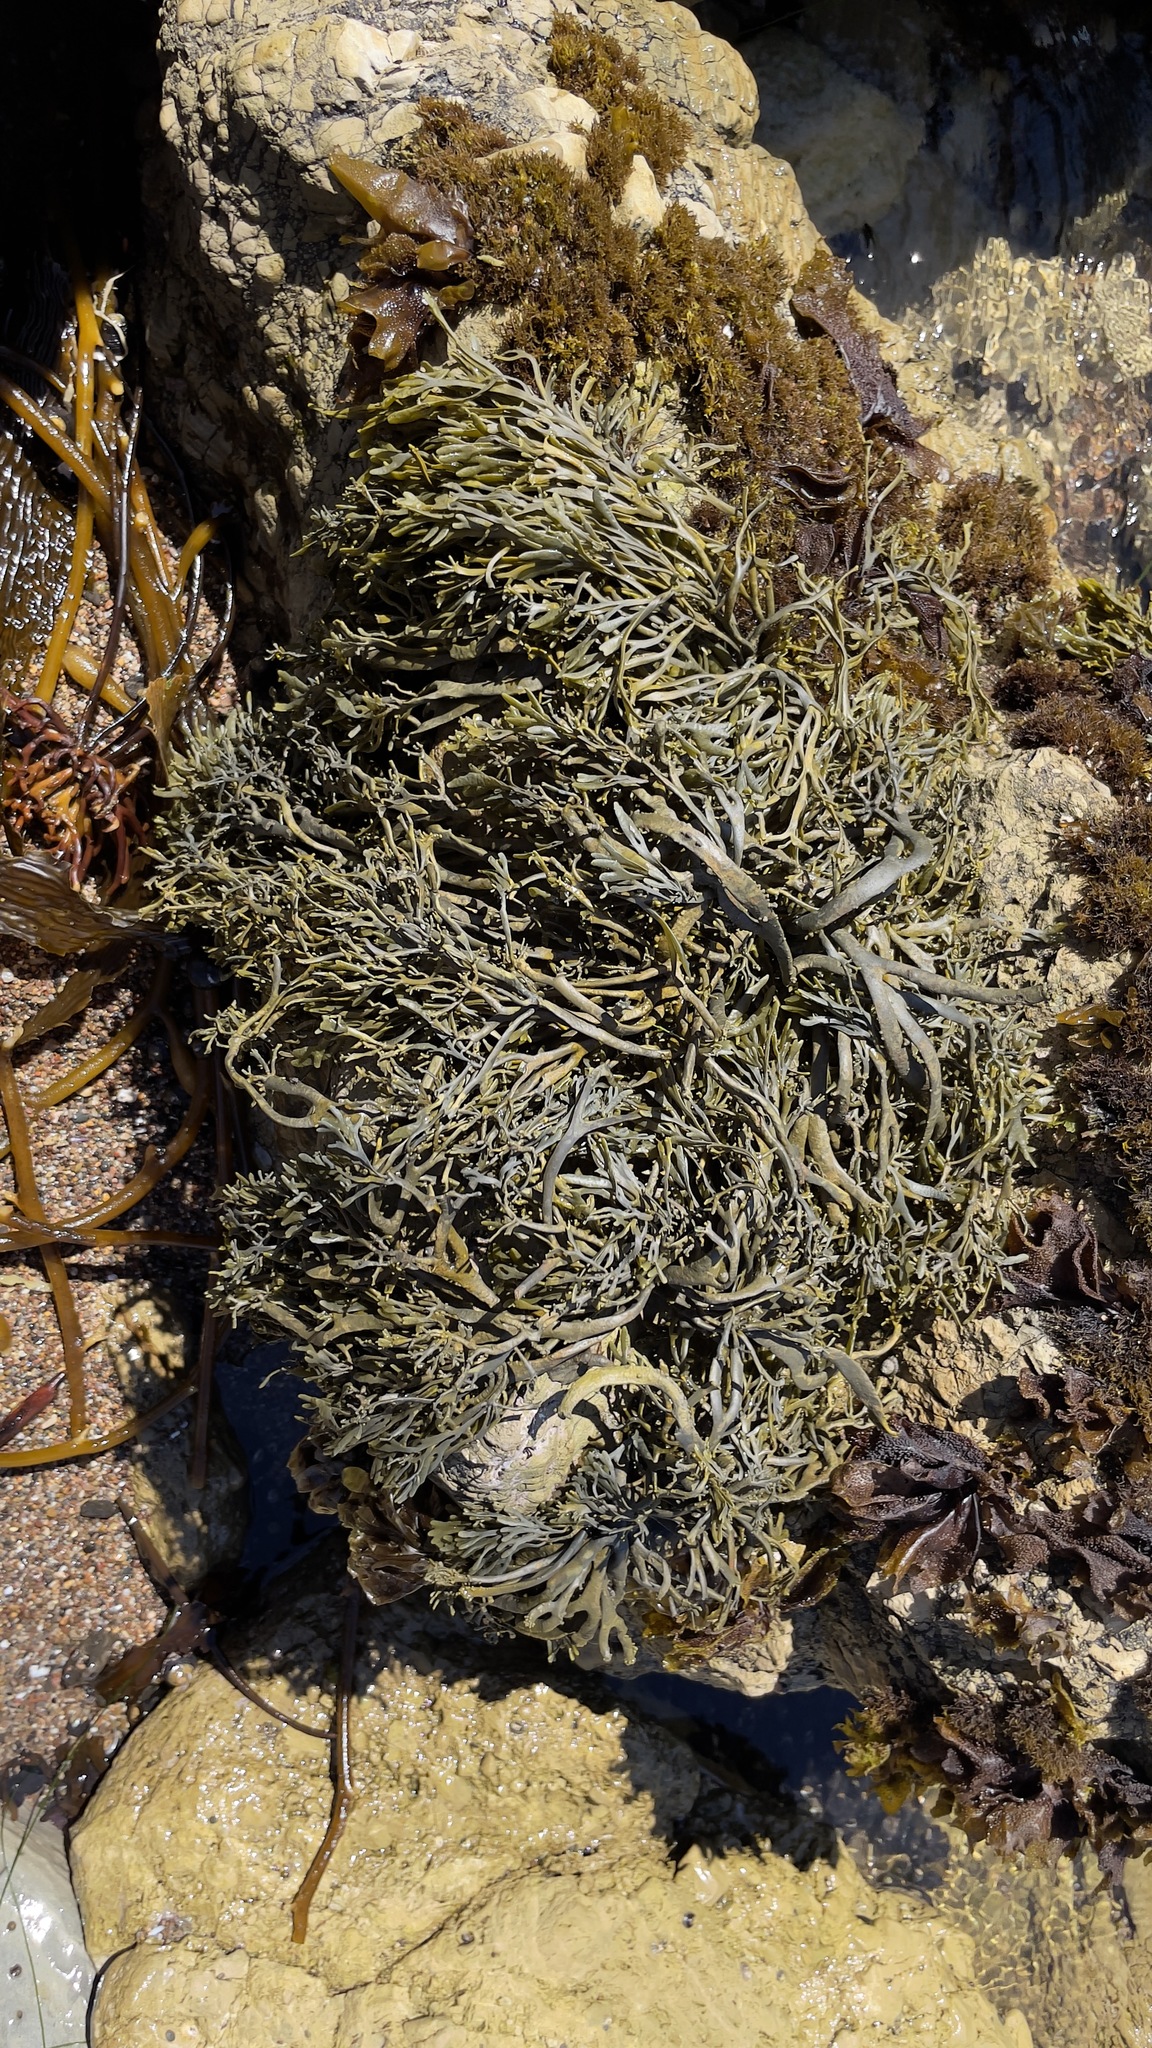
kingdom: Chromista
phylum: Ochrophyta
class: Phaeophyceae
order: Fucales
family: Fucaceae
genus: Silvetia
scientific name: Silvetia
